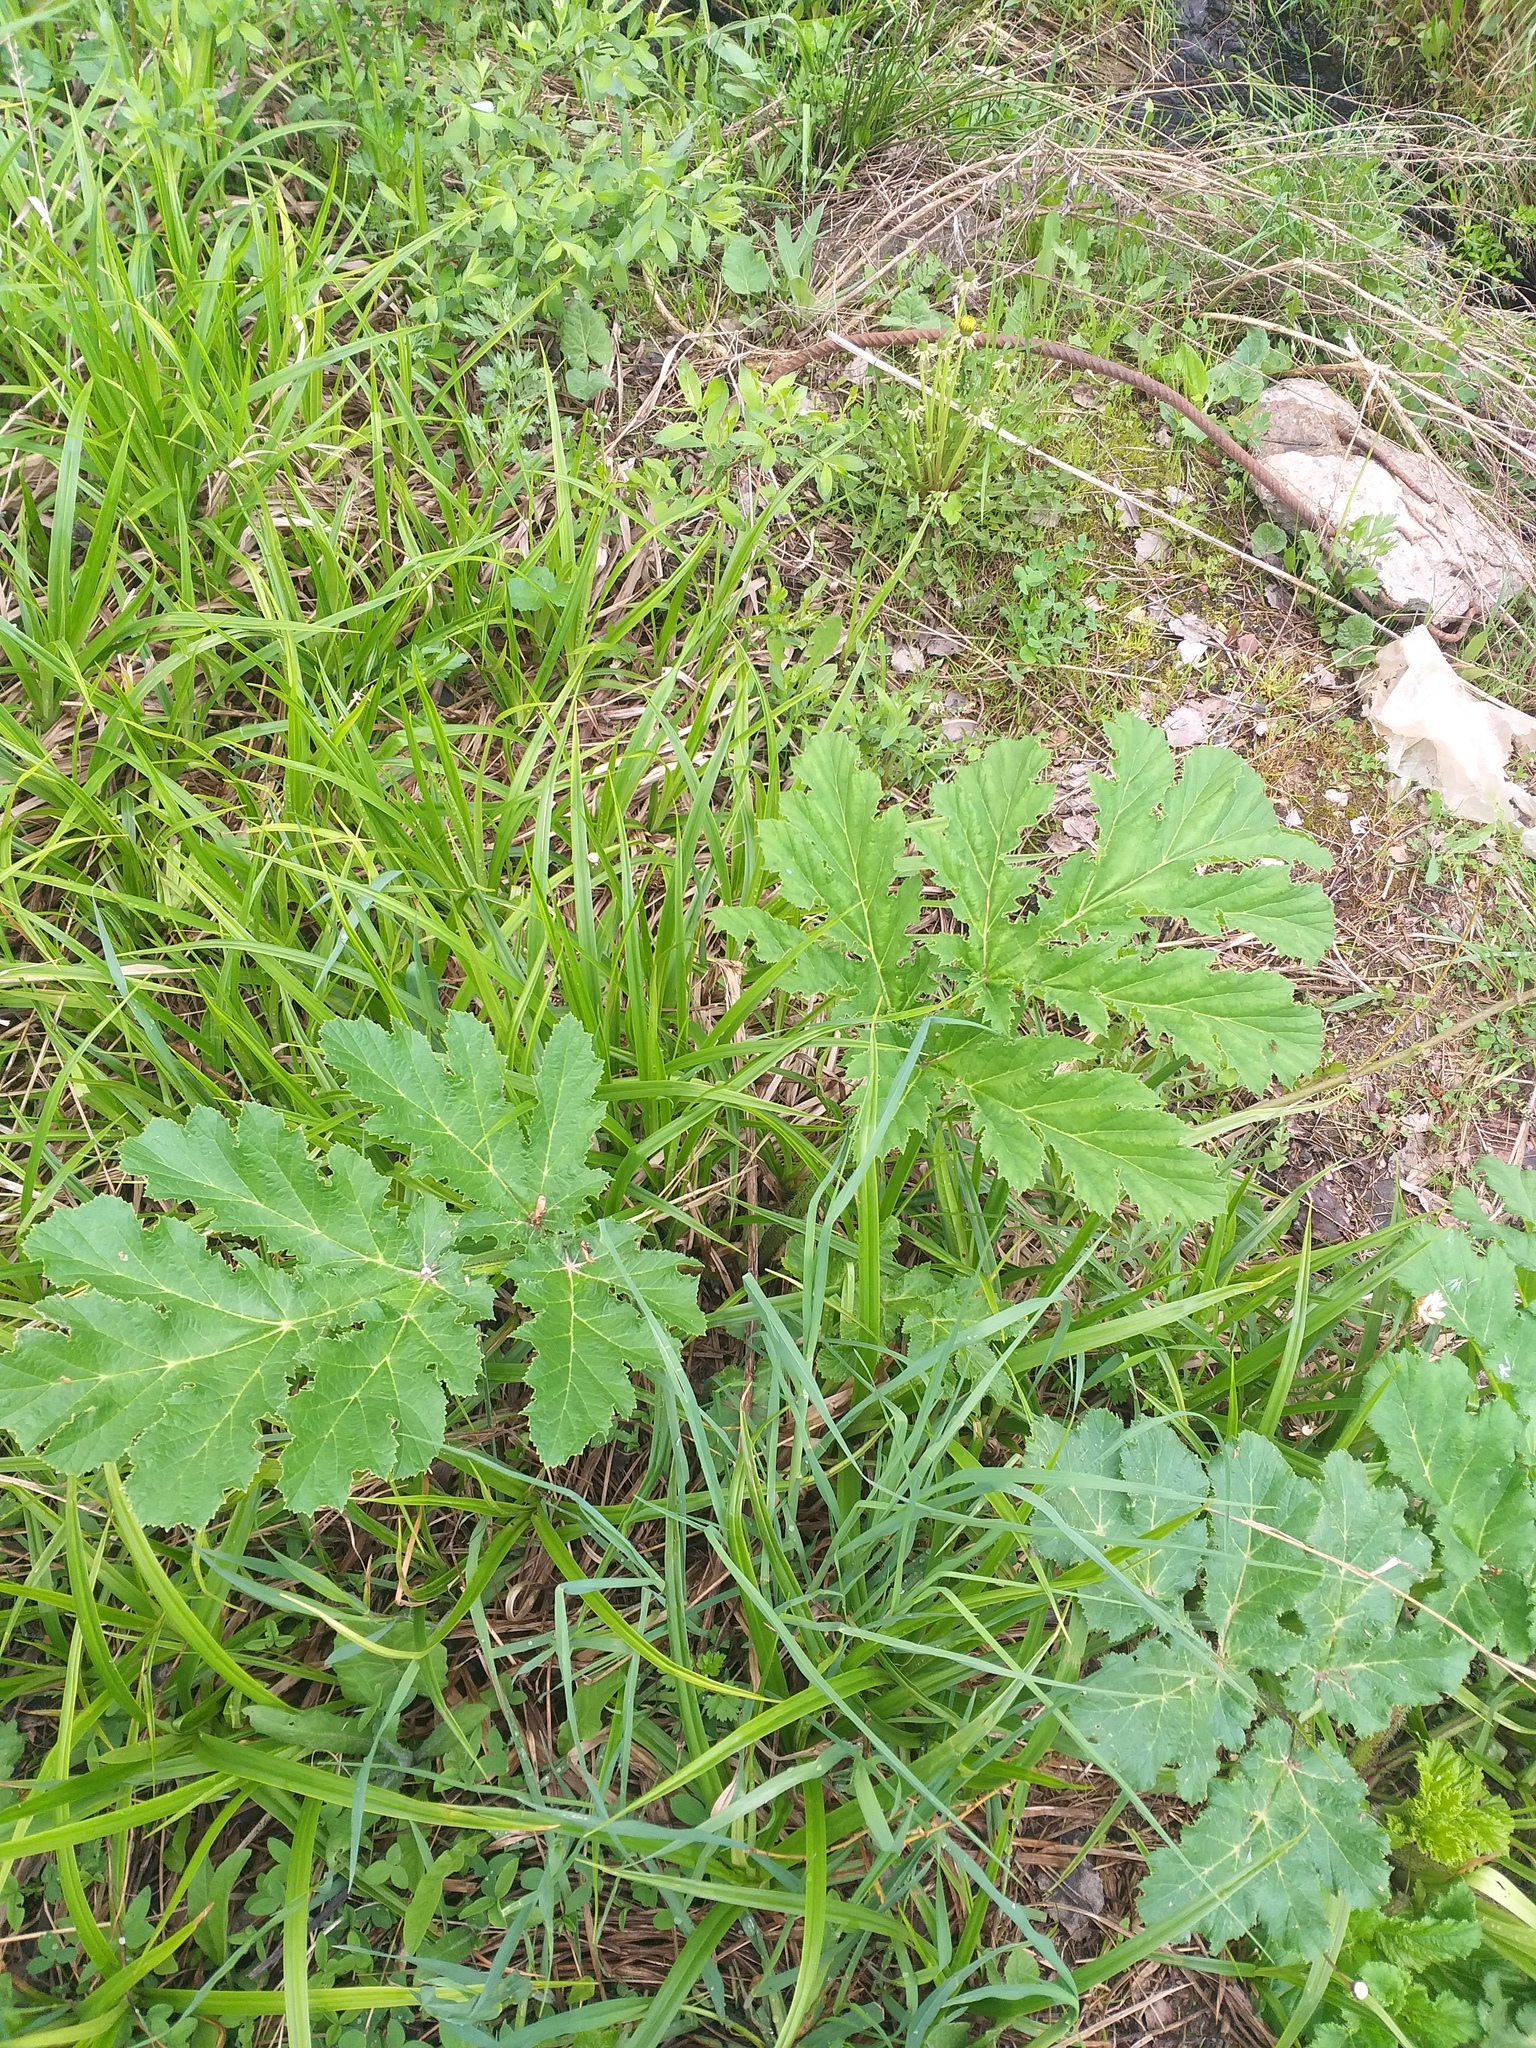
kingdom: Plantae
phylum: Tracheophyta
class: Magnoliopsida
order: Apiales
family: Apiaceae
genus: Heracleum
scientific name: Heracleum sosnowskyi
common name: Sosnowsky's hogweed
